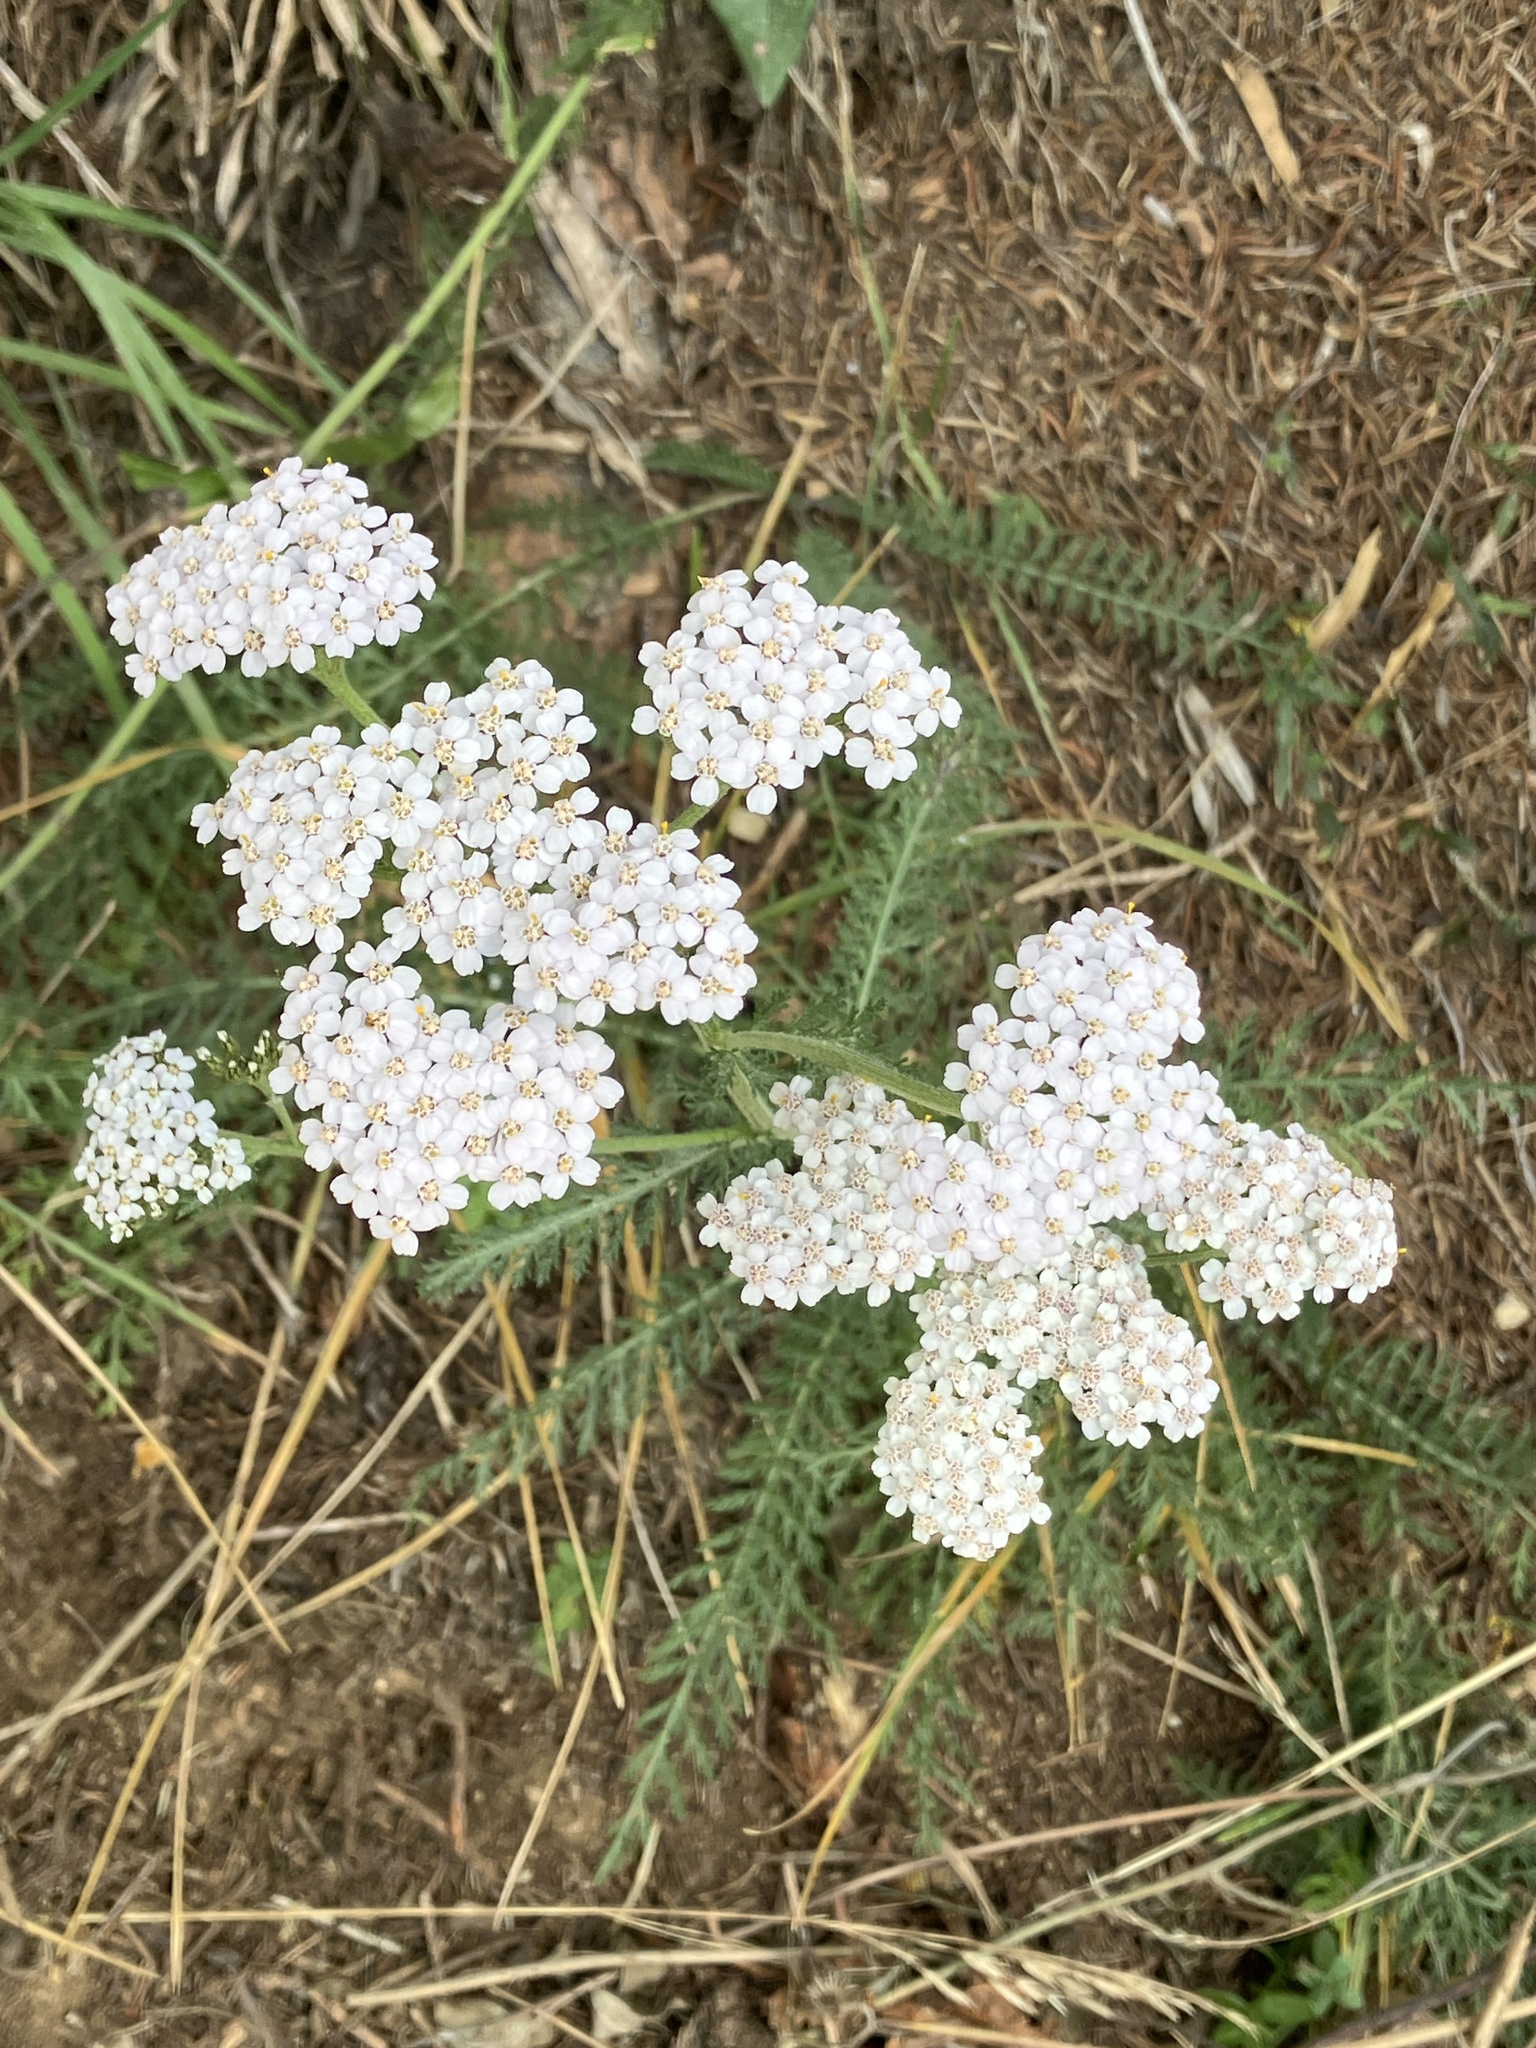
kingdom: Plantae
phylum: Tracheophyta
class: Magnoliopsida
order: Asterales
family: Asteraceae
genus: Achillea
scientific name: Achillea millefolium
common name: Yarrow
